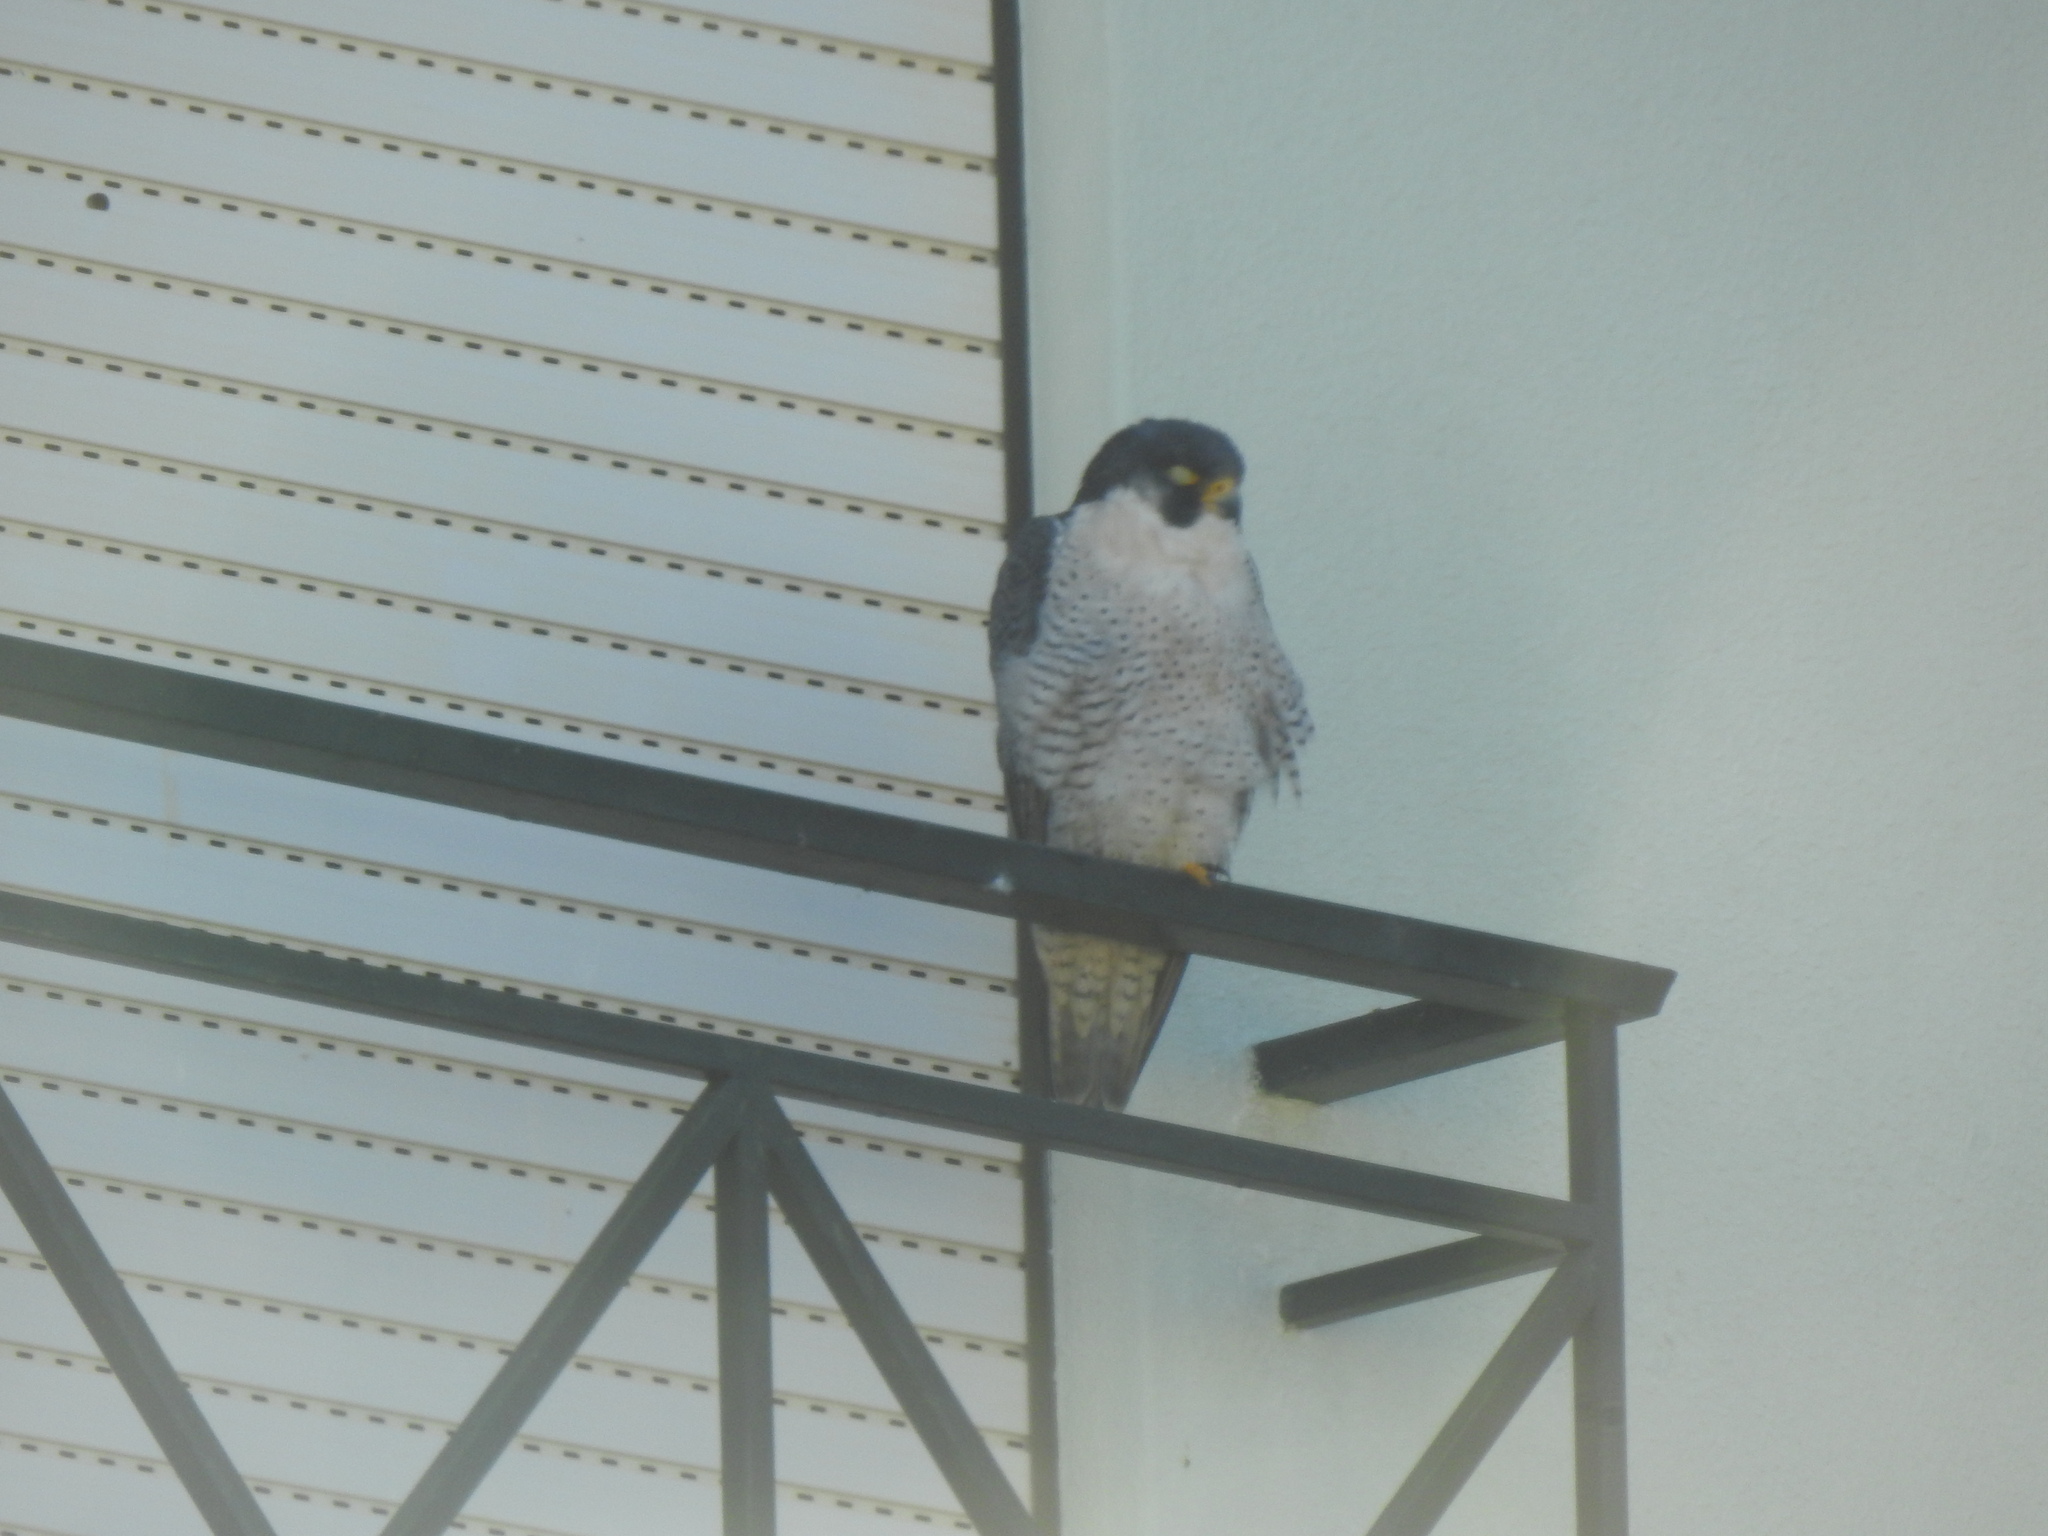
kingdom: Animalia
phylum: Chordata
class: Aves
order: Falconiformes
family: Falconidae
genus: Falco
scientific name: Falco peregrinus
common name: Peregrine falcon
